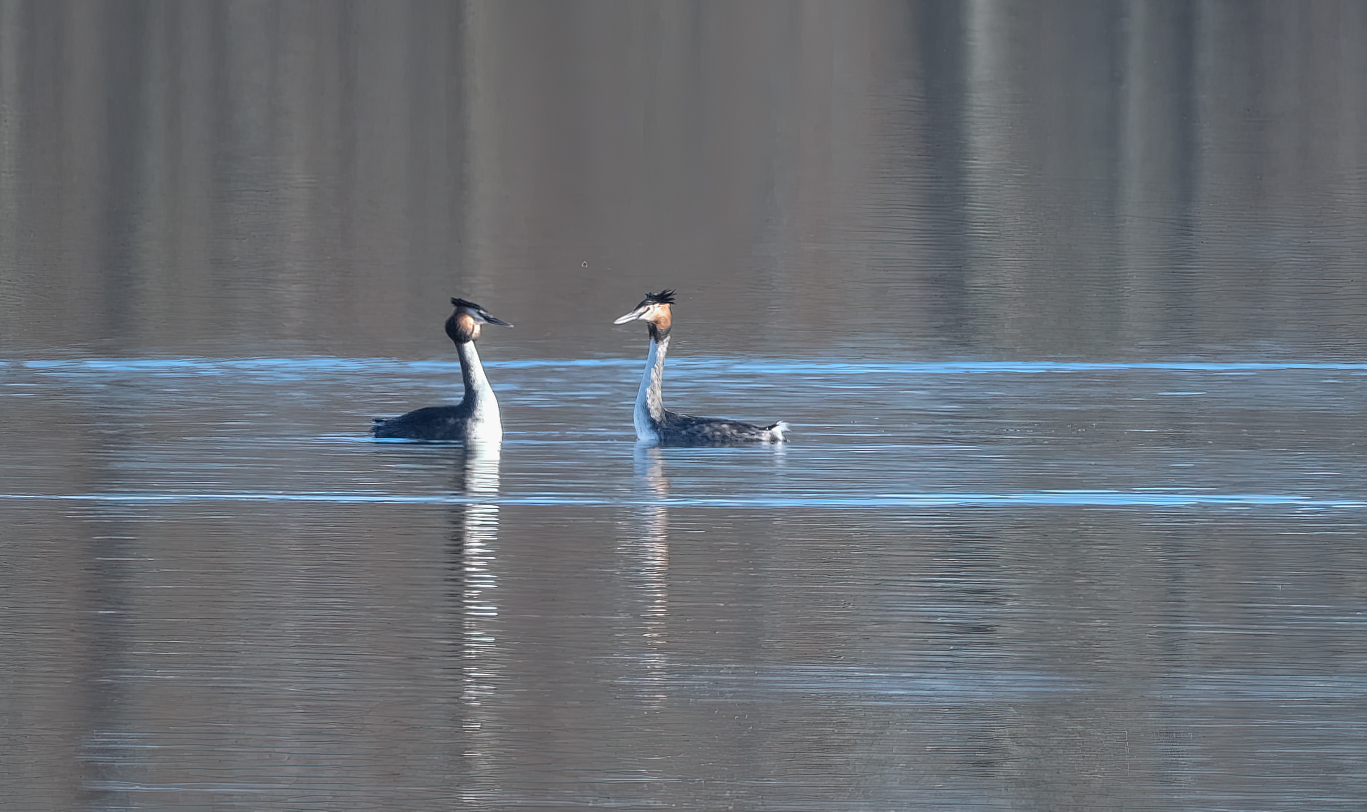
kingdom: Animalia
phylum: Chordata
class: Aves
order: Podicipediformes
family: Podicipedidae
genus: Podiceps
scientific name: Podiceps cristatus
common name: Great crested grebe
